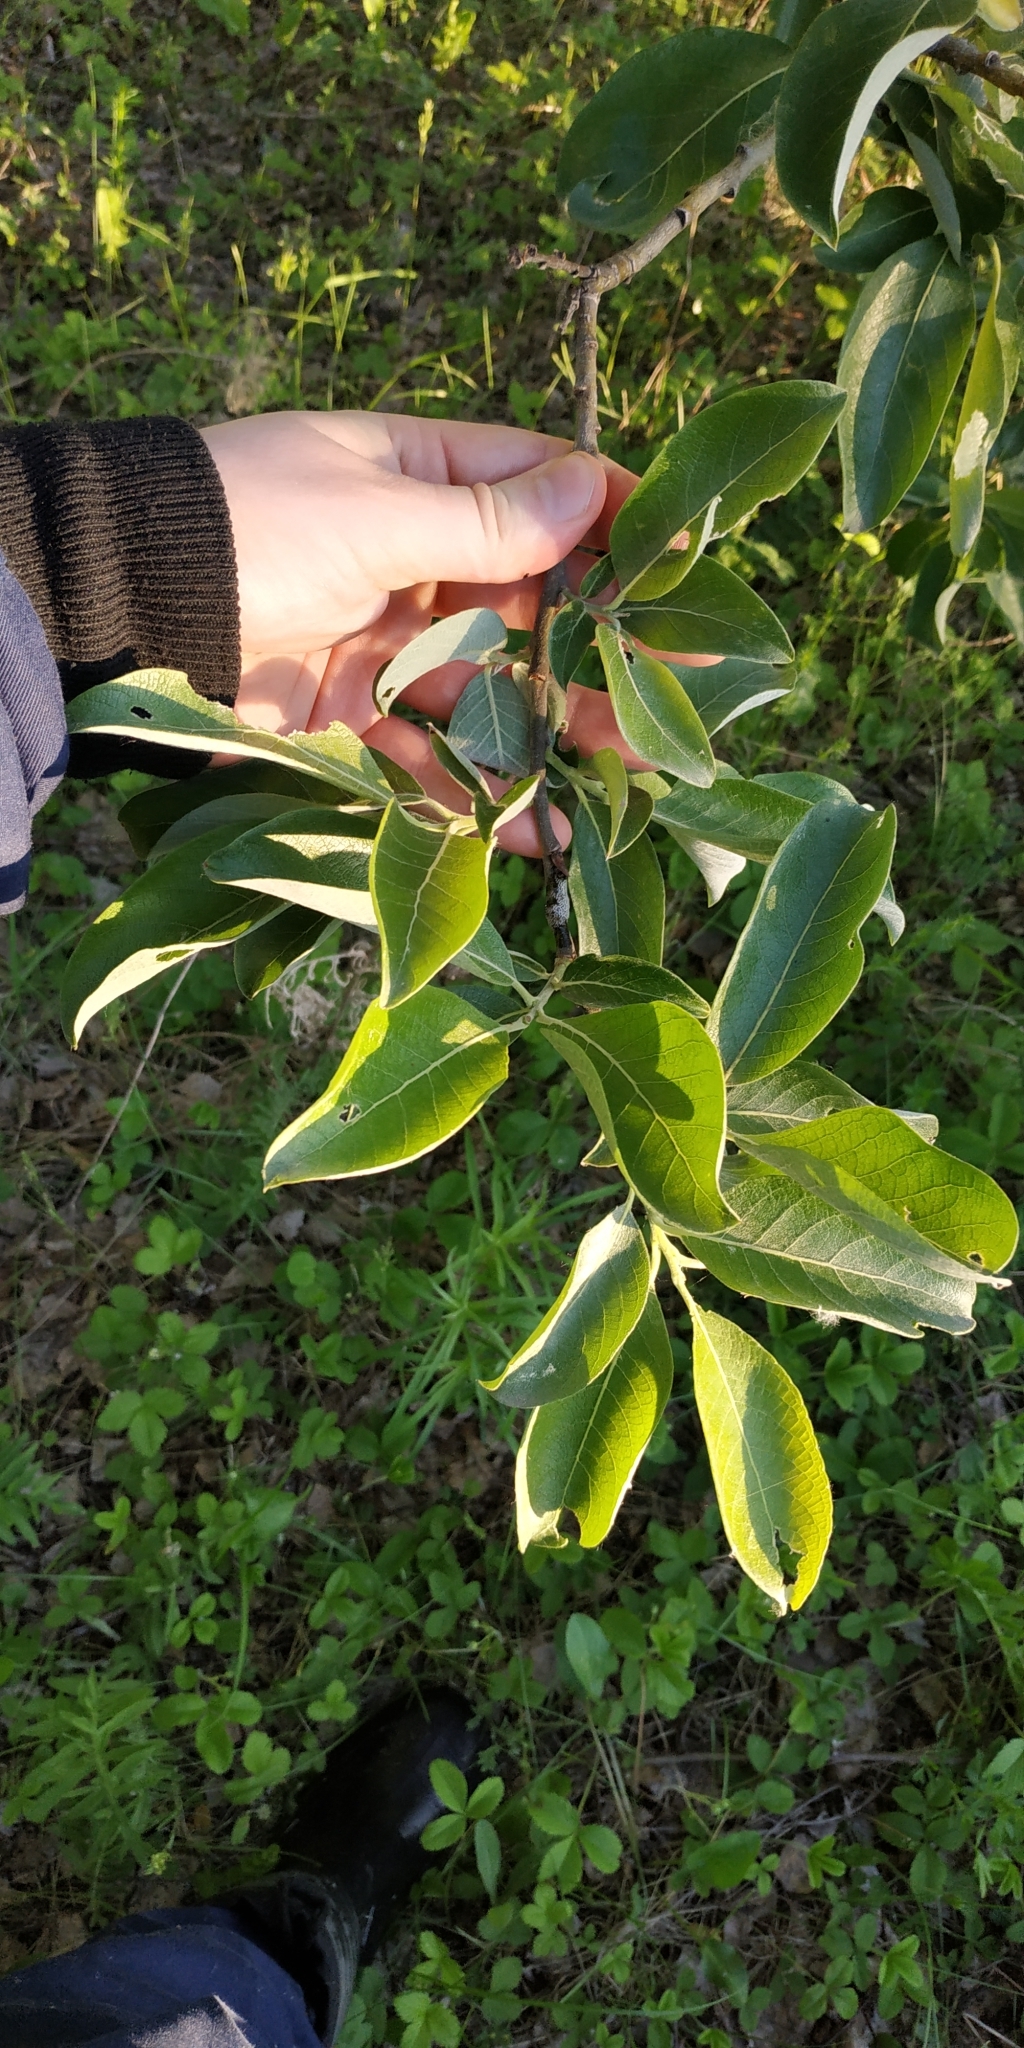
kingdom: Plantae
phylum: Tracheophyta
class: Magnoliopsida
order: Malpighiales
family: Salicaceae
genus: Salix
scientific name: Salix caprea
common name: Goat willow
